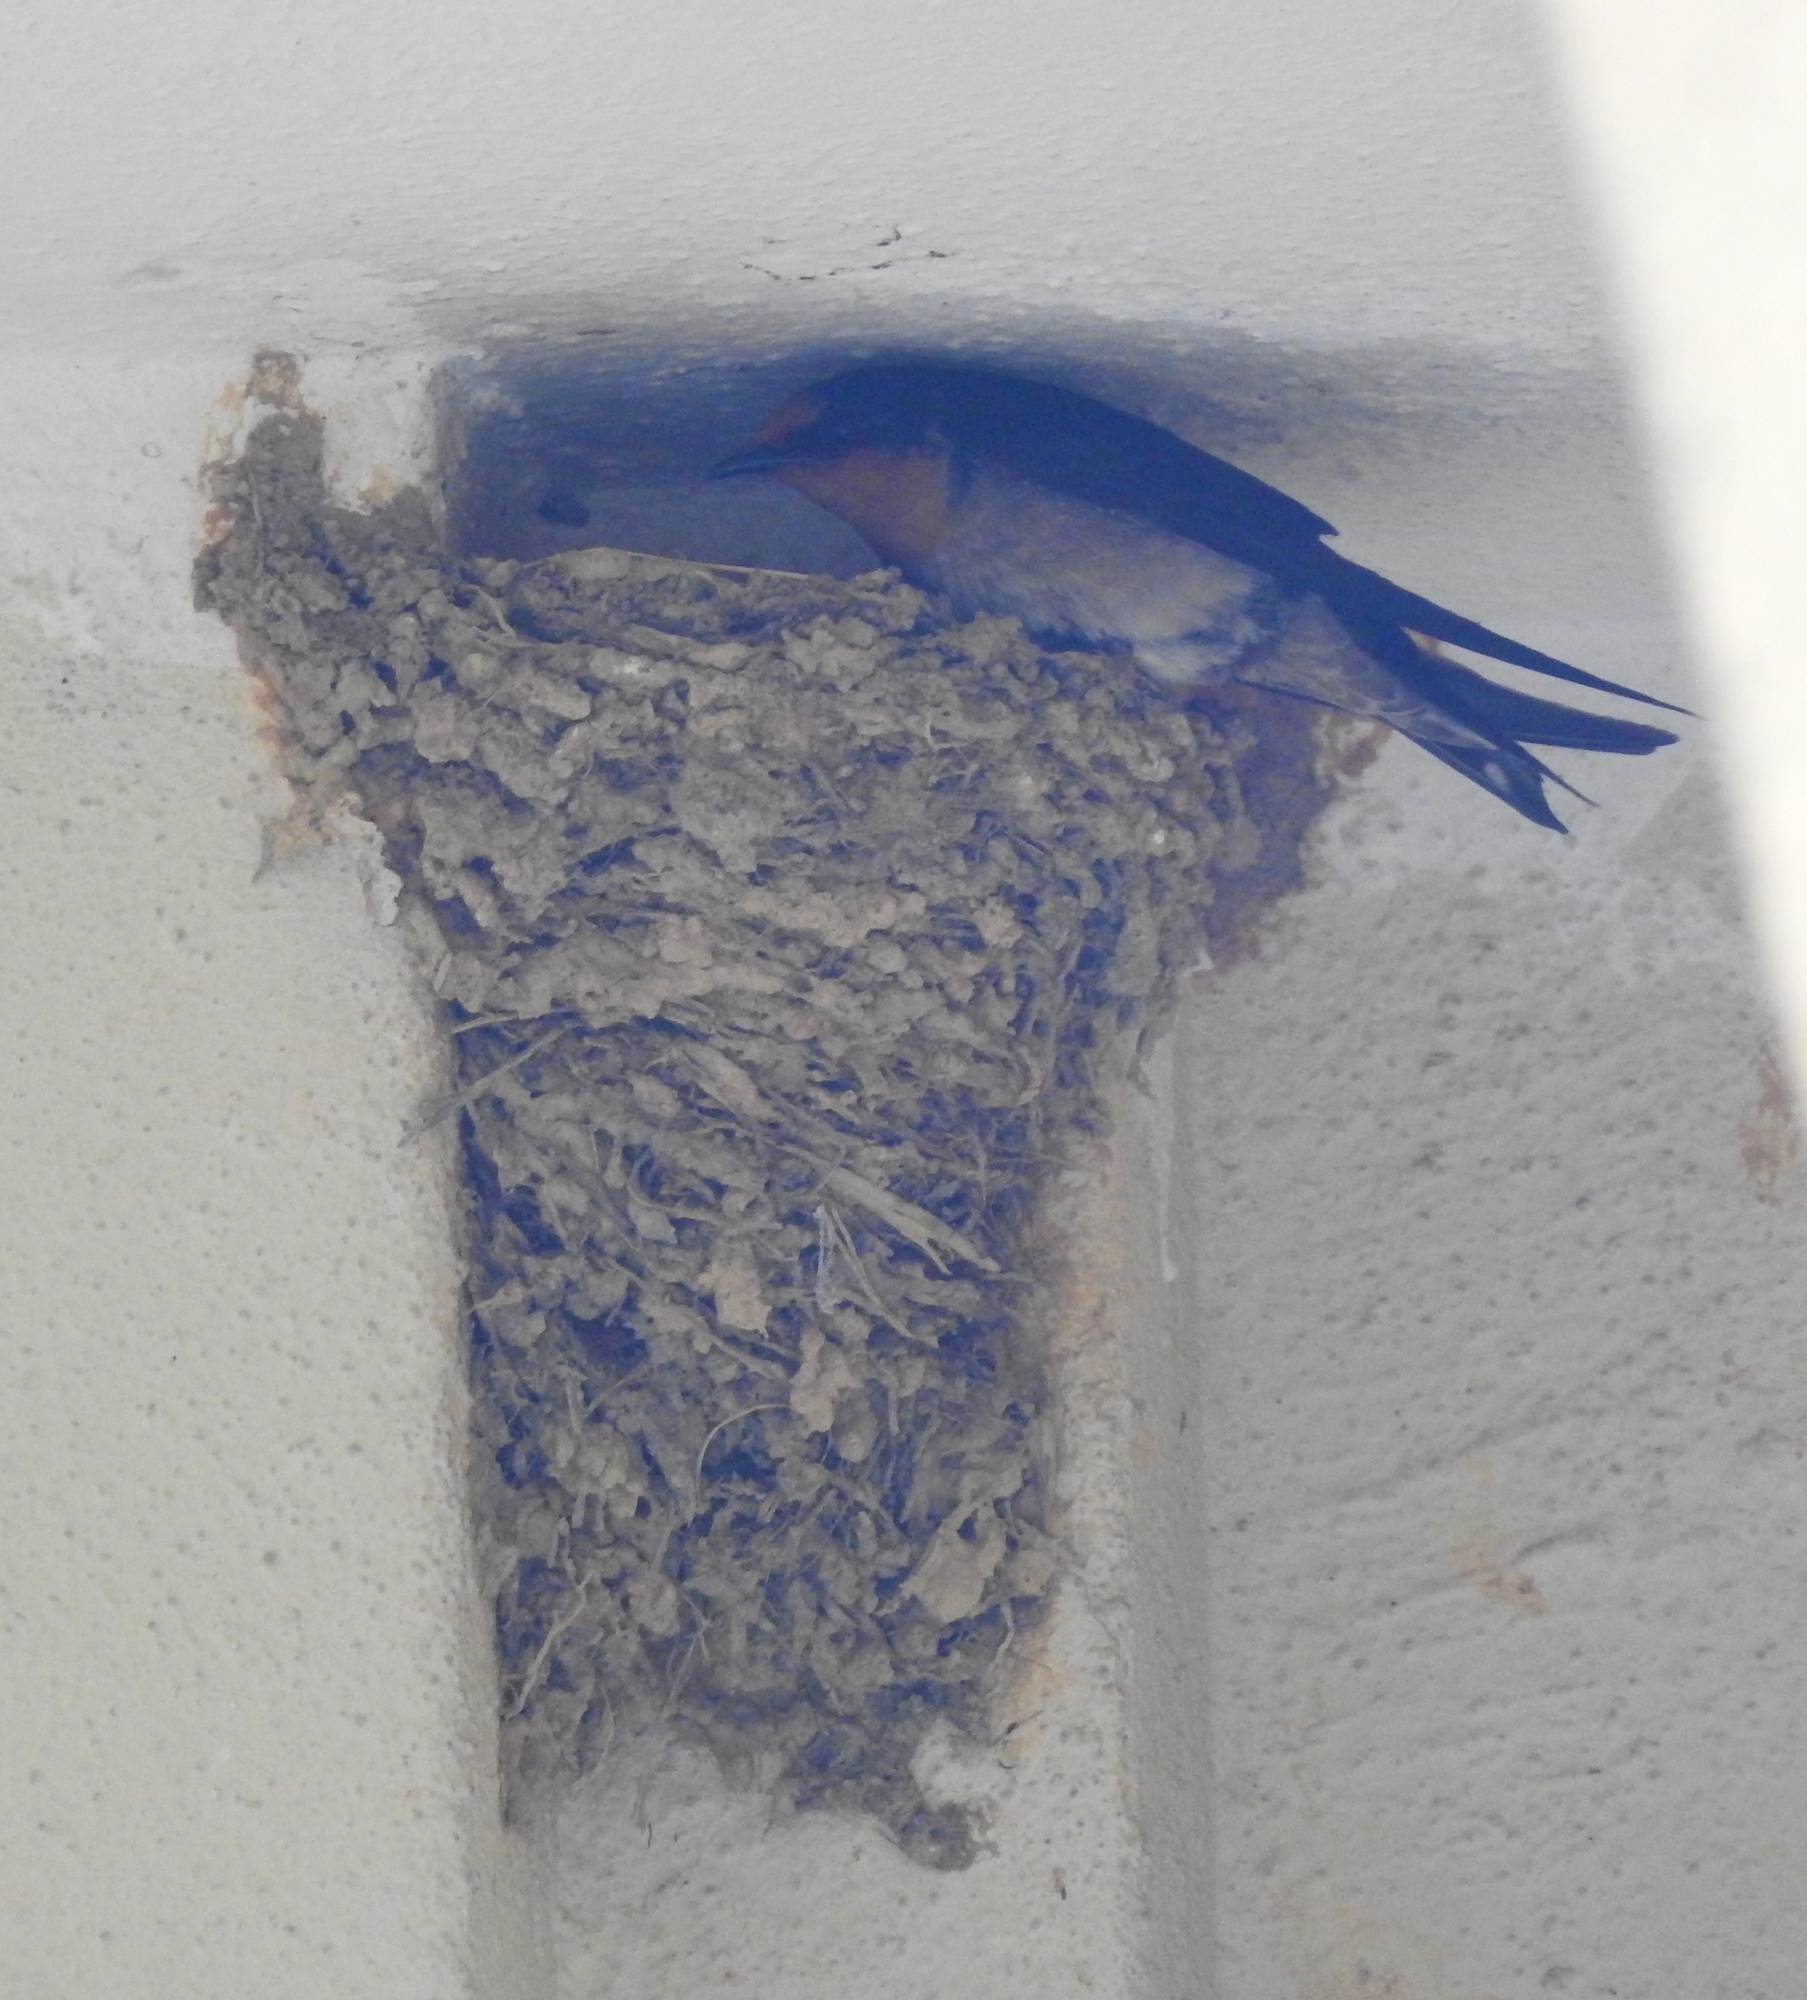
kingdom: Animalia
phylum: Chordata
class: Aves
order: Passeriformes
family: Hirundinidae
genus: Hirundo
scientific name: Hirundo tahitica
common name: Pacific swallow
